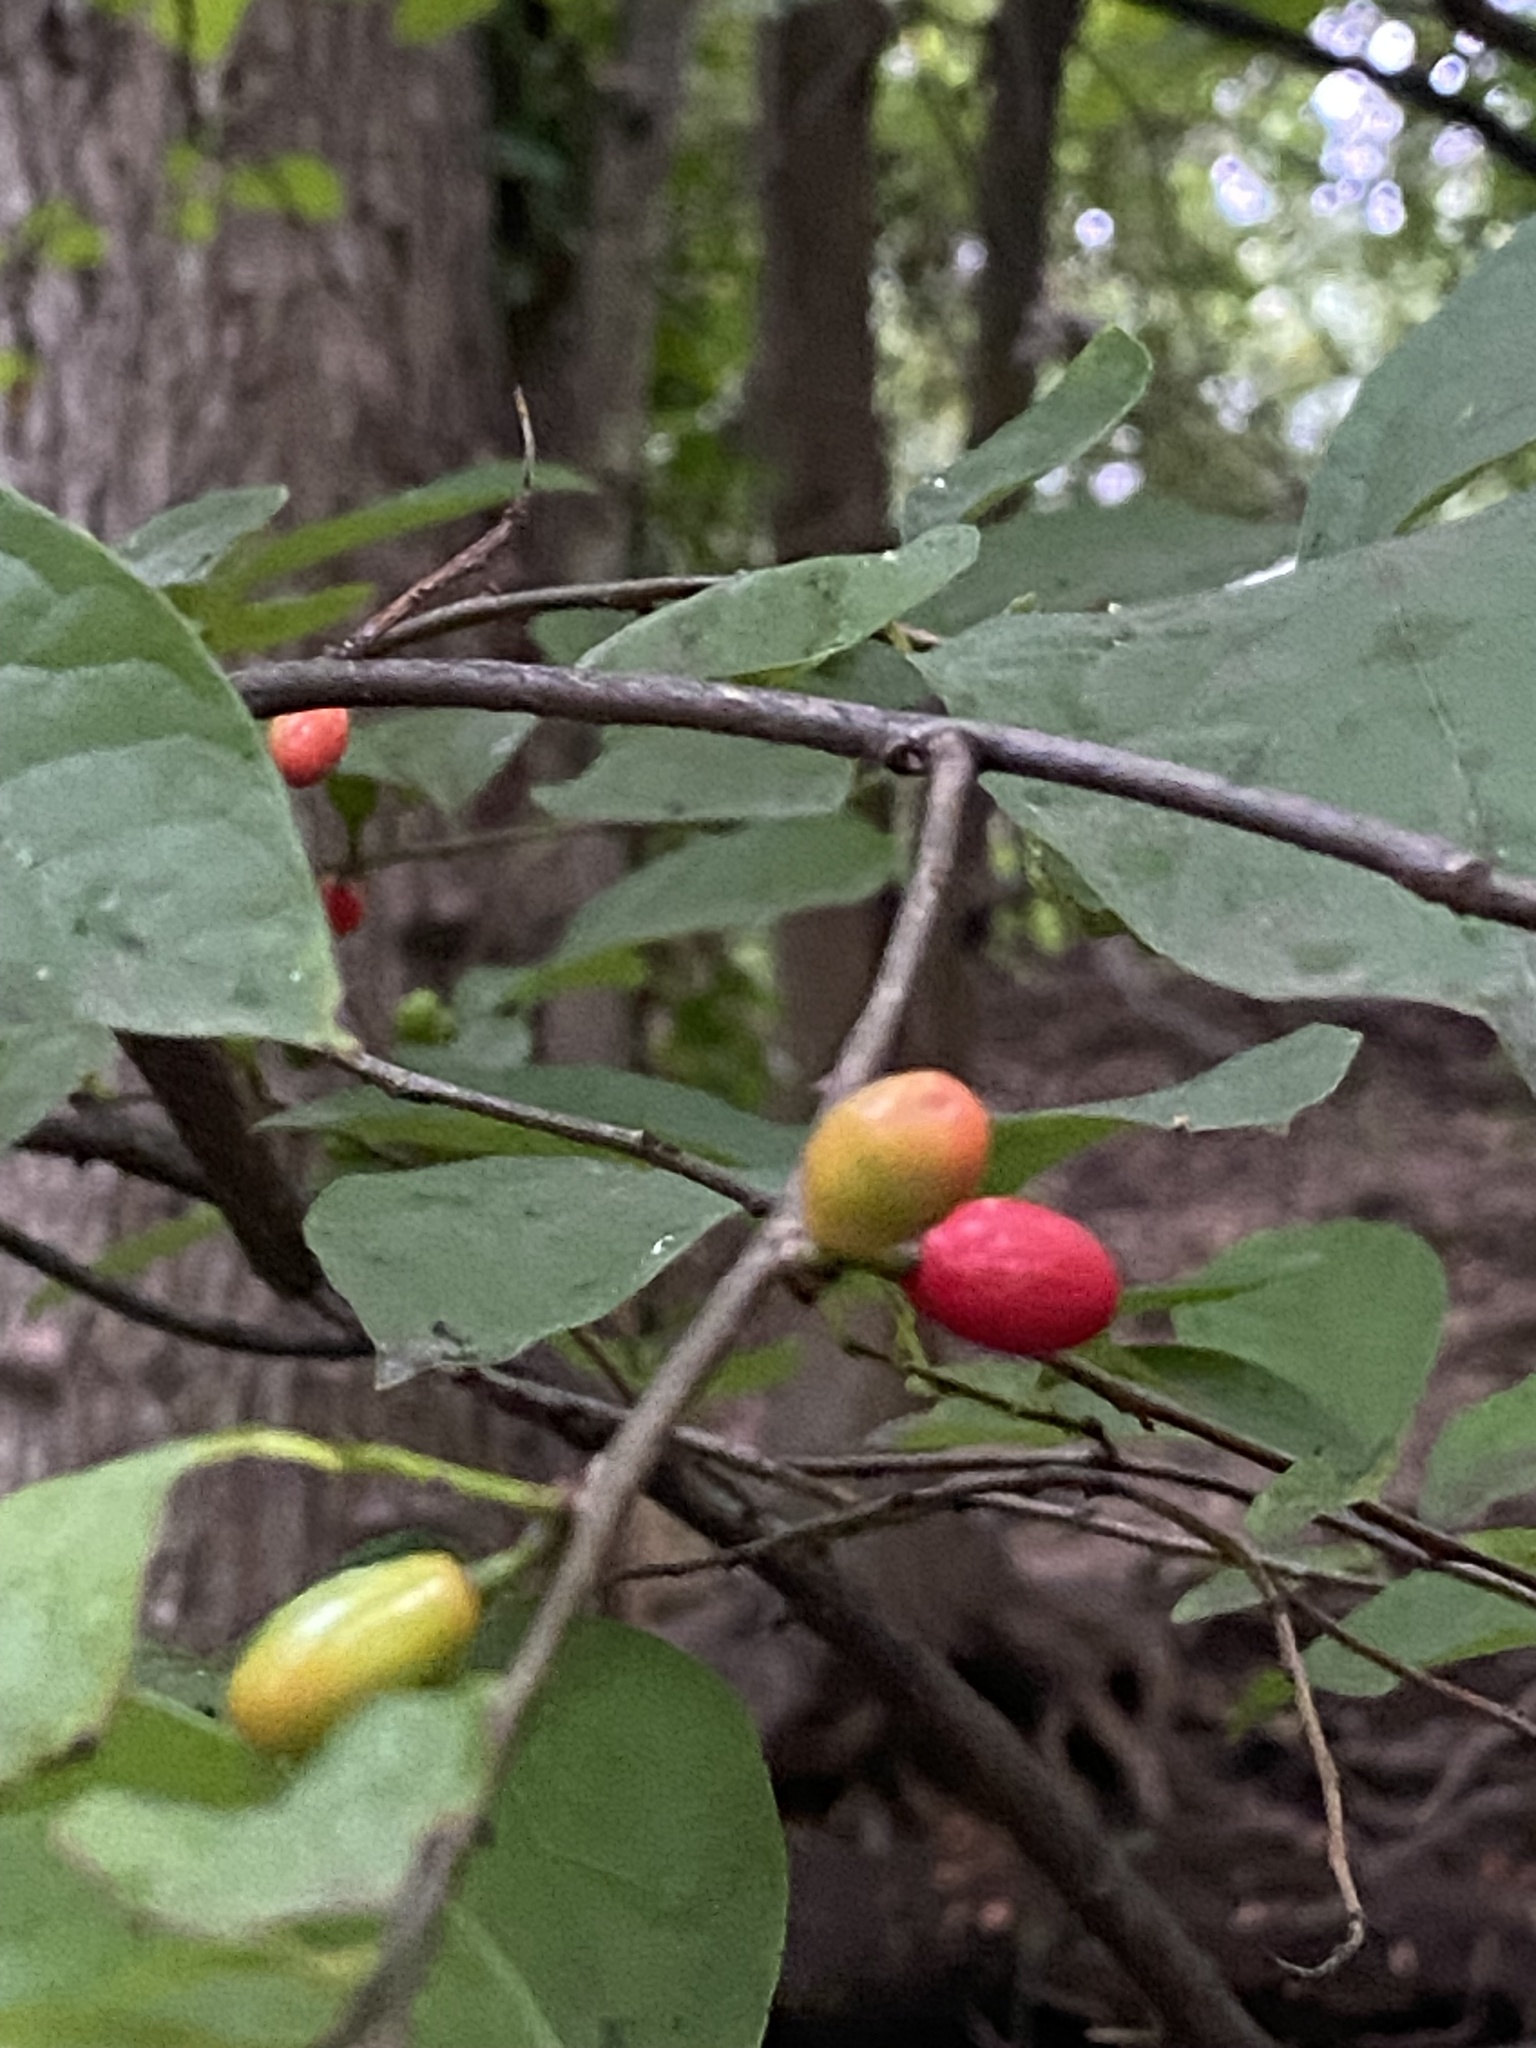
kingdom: Plantae
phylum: Tracheophyta
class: Magnoliopsida
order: Laurales
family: Lauraceae
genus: Lindera
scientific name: Lindera benzoin
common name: Spicebush
